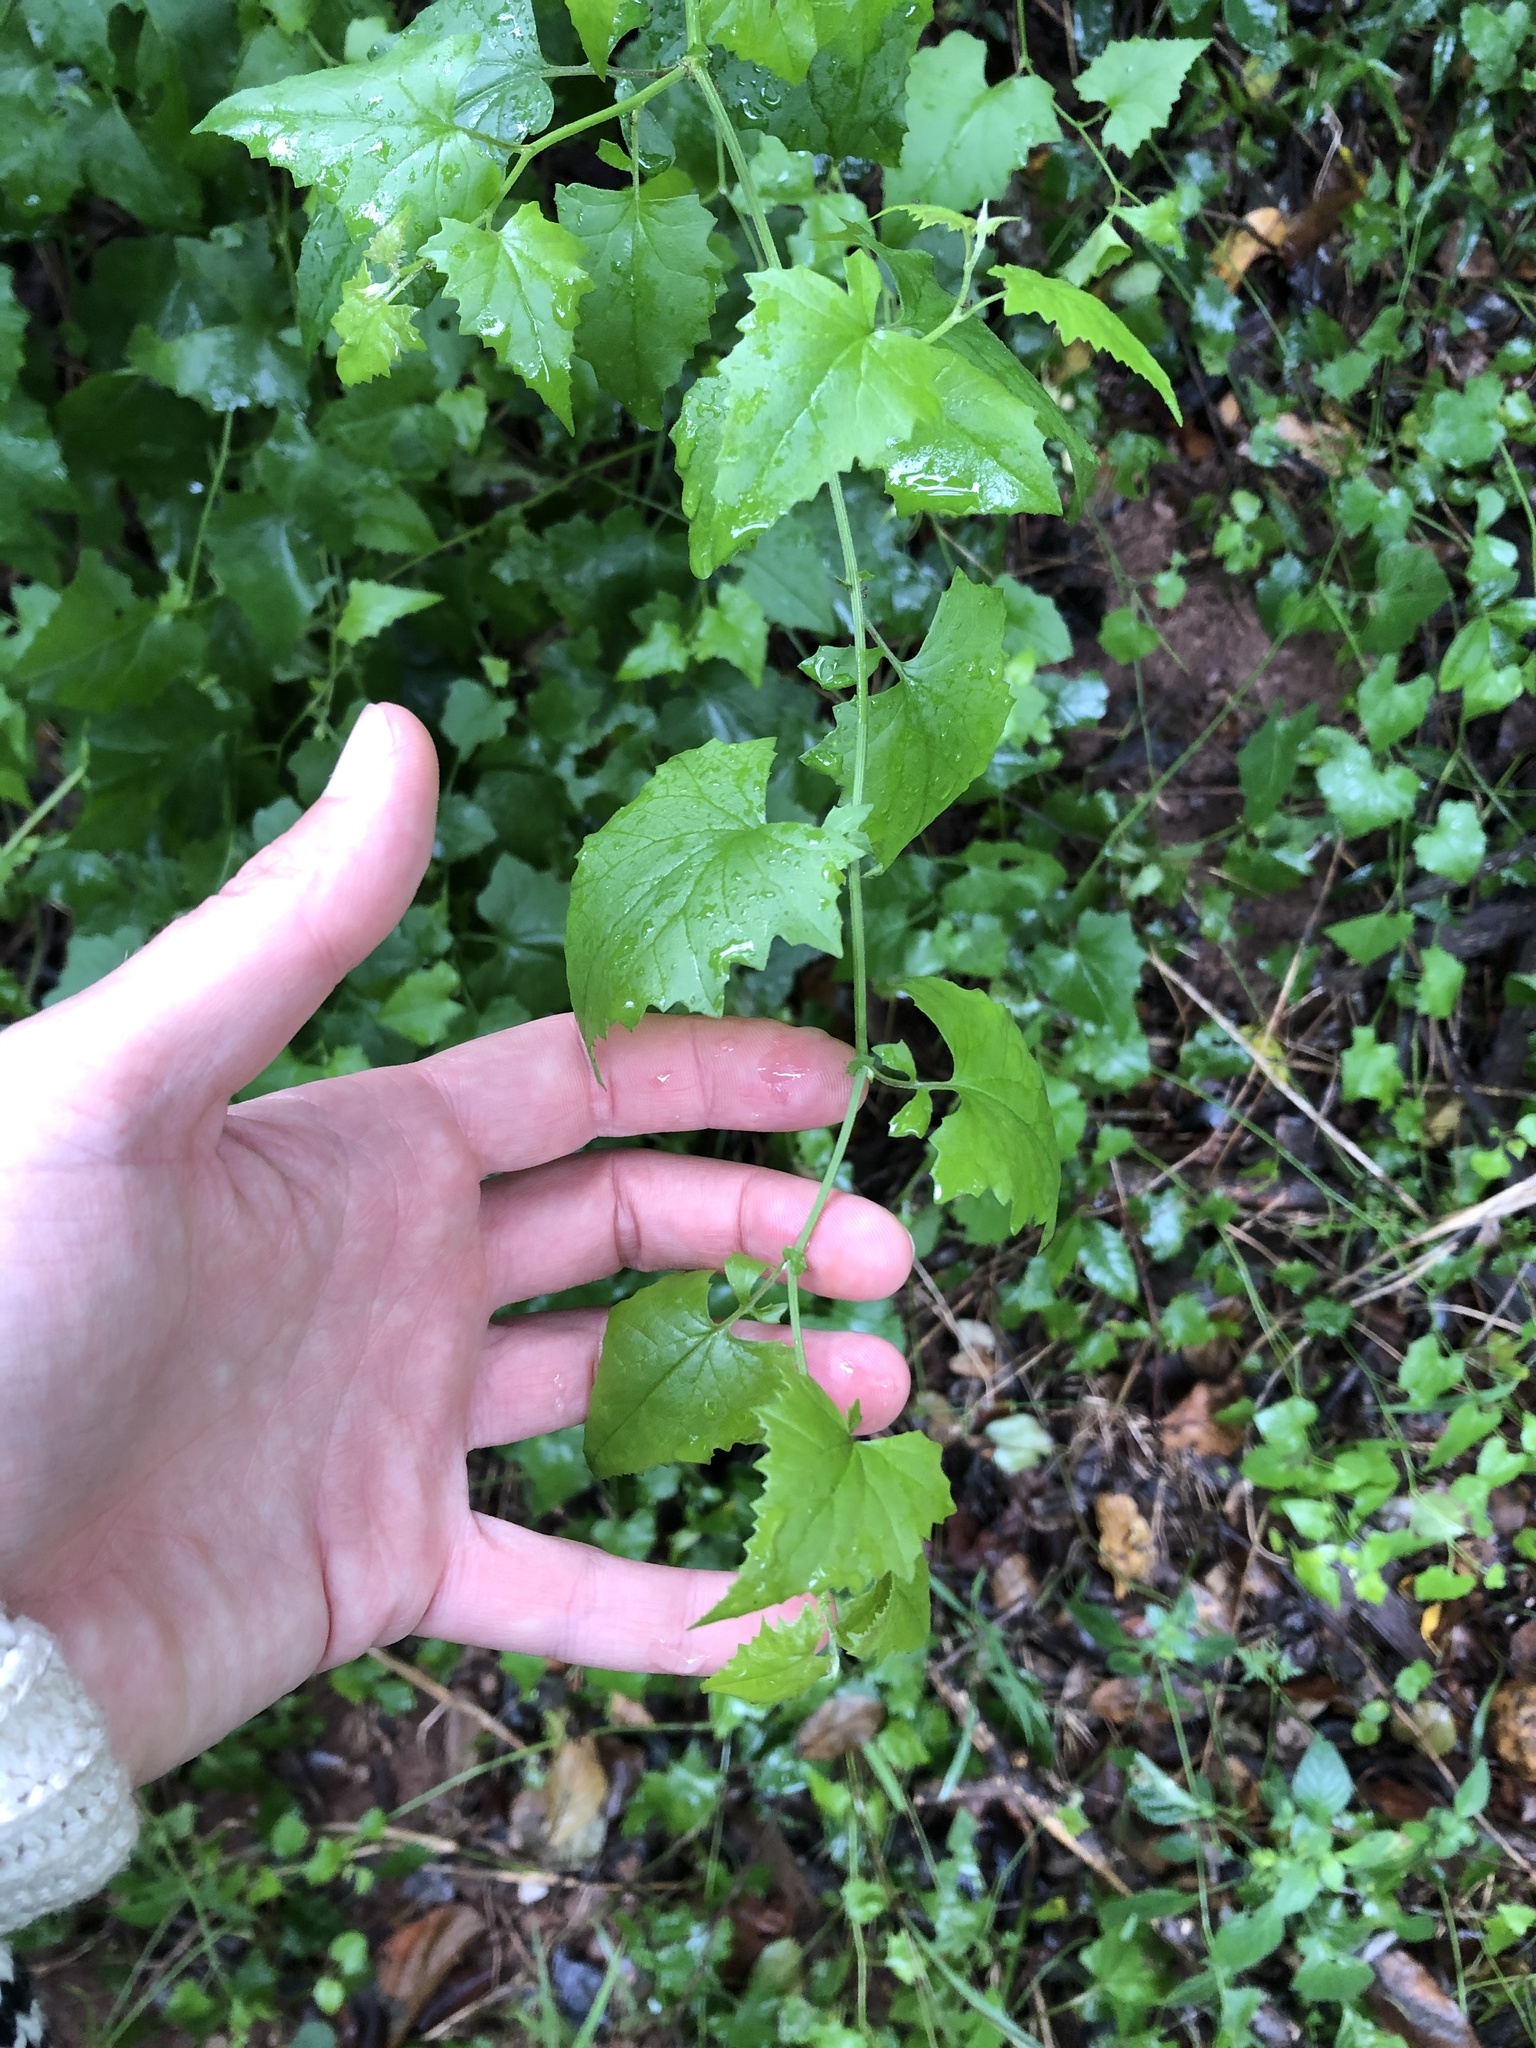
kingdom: Plantae
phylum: Tracheophyta
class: Magnoliopsida
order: Asterales
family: Asteraceae
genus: Senecio
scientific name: Senecio deltoideus
